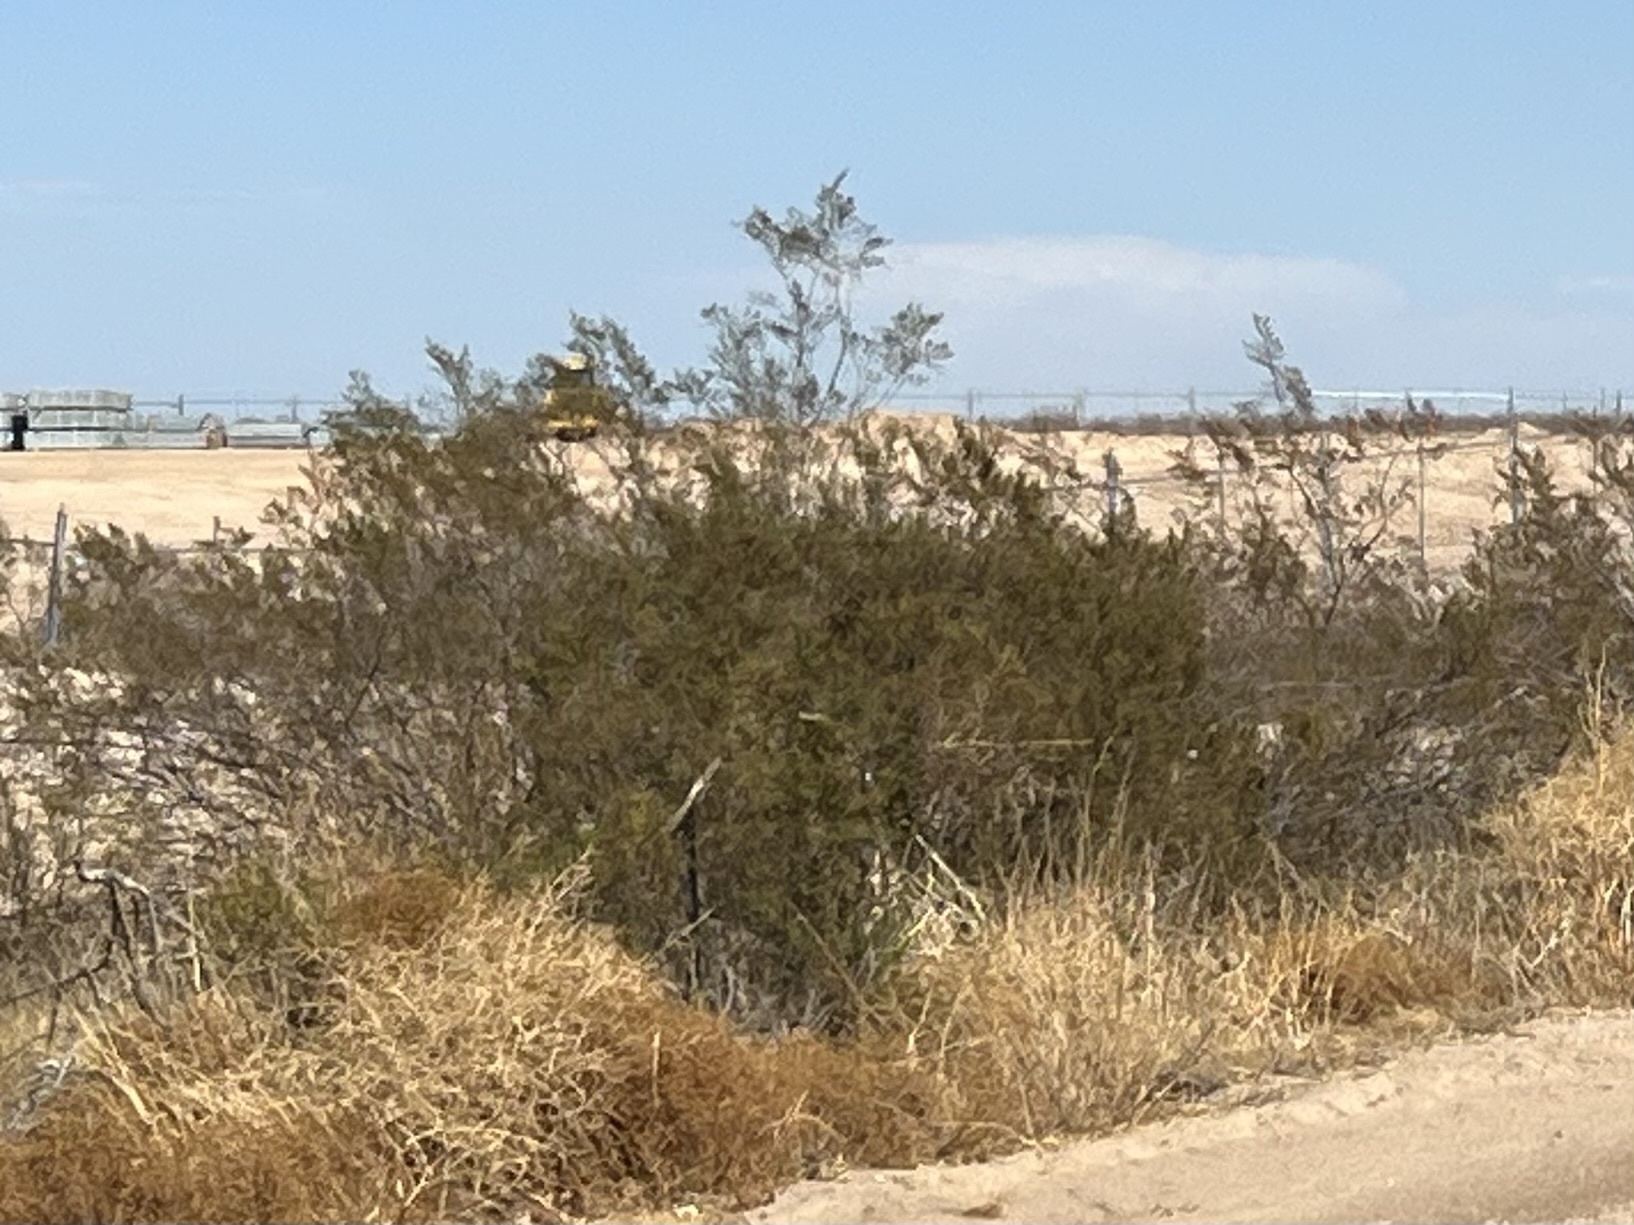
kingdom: Plantae
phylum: Tracheophyta
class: Magnoliopsida
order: Zygophyllales
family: Zygophyllaceae
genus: Larrea
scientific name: Larrea tridentata
